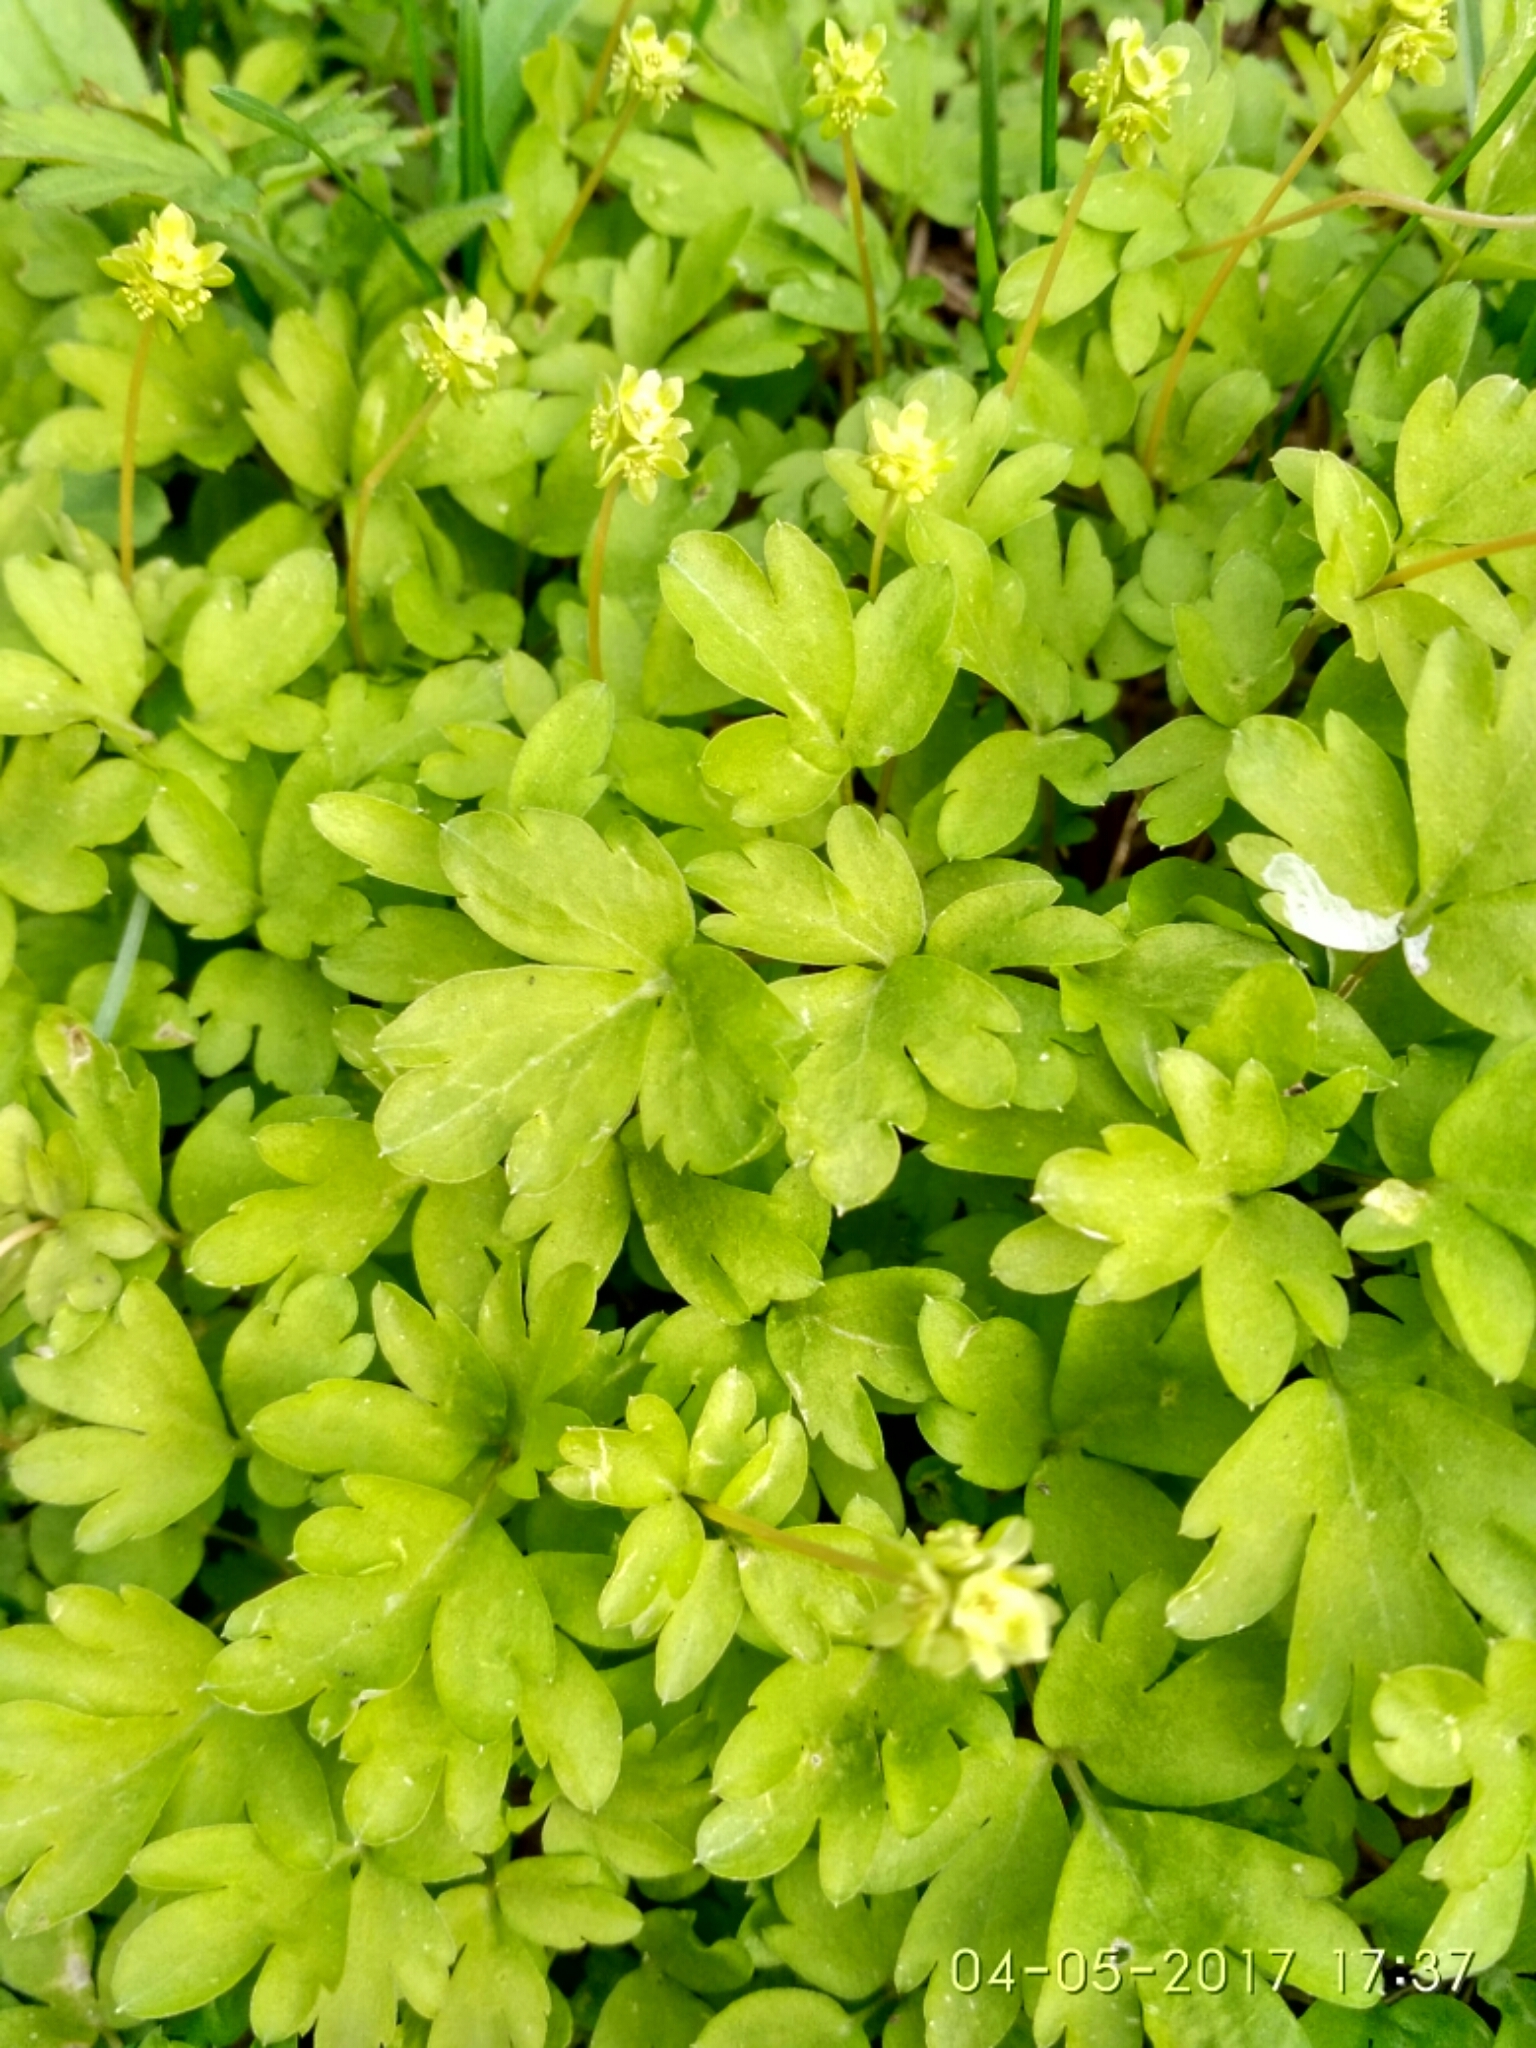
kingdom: Plantae
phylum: Tracheophyta
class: Magnoliopsida
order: Dipsacales
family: Viburnaceae
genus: Adoxa
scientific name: Adoxa moschatellina
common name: Moschatel
